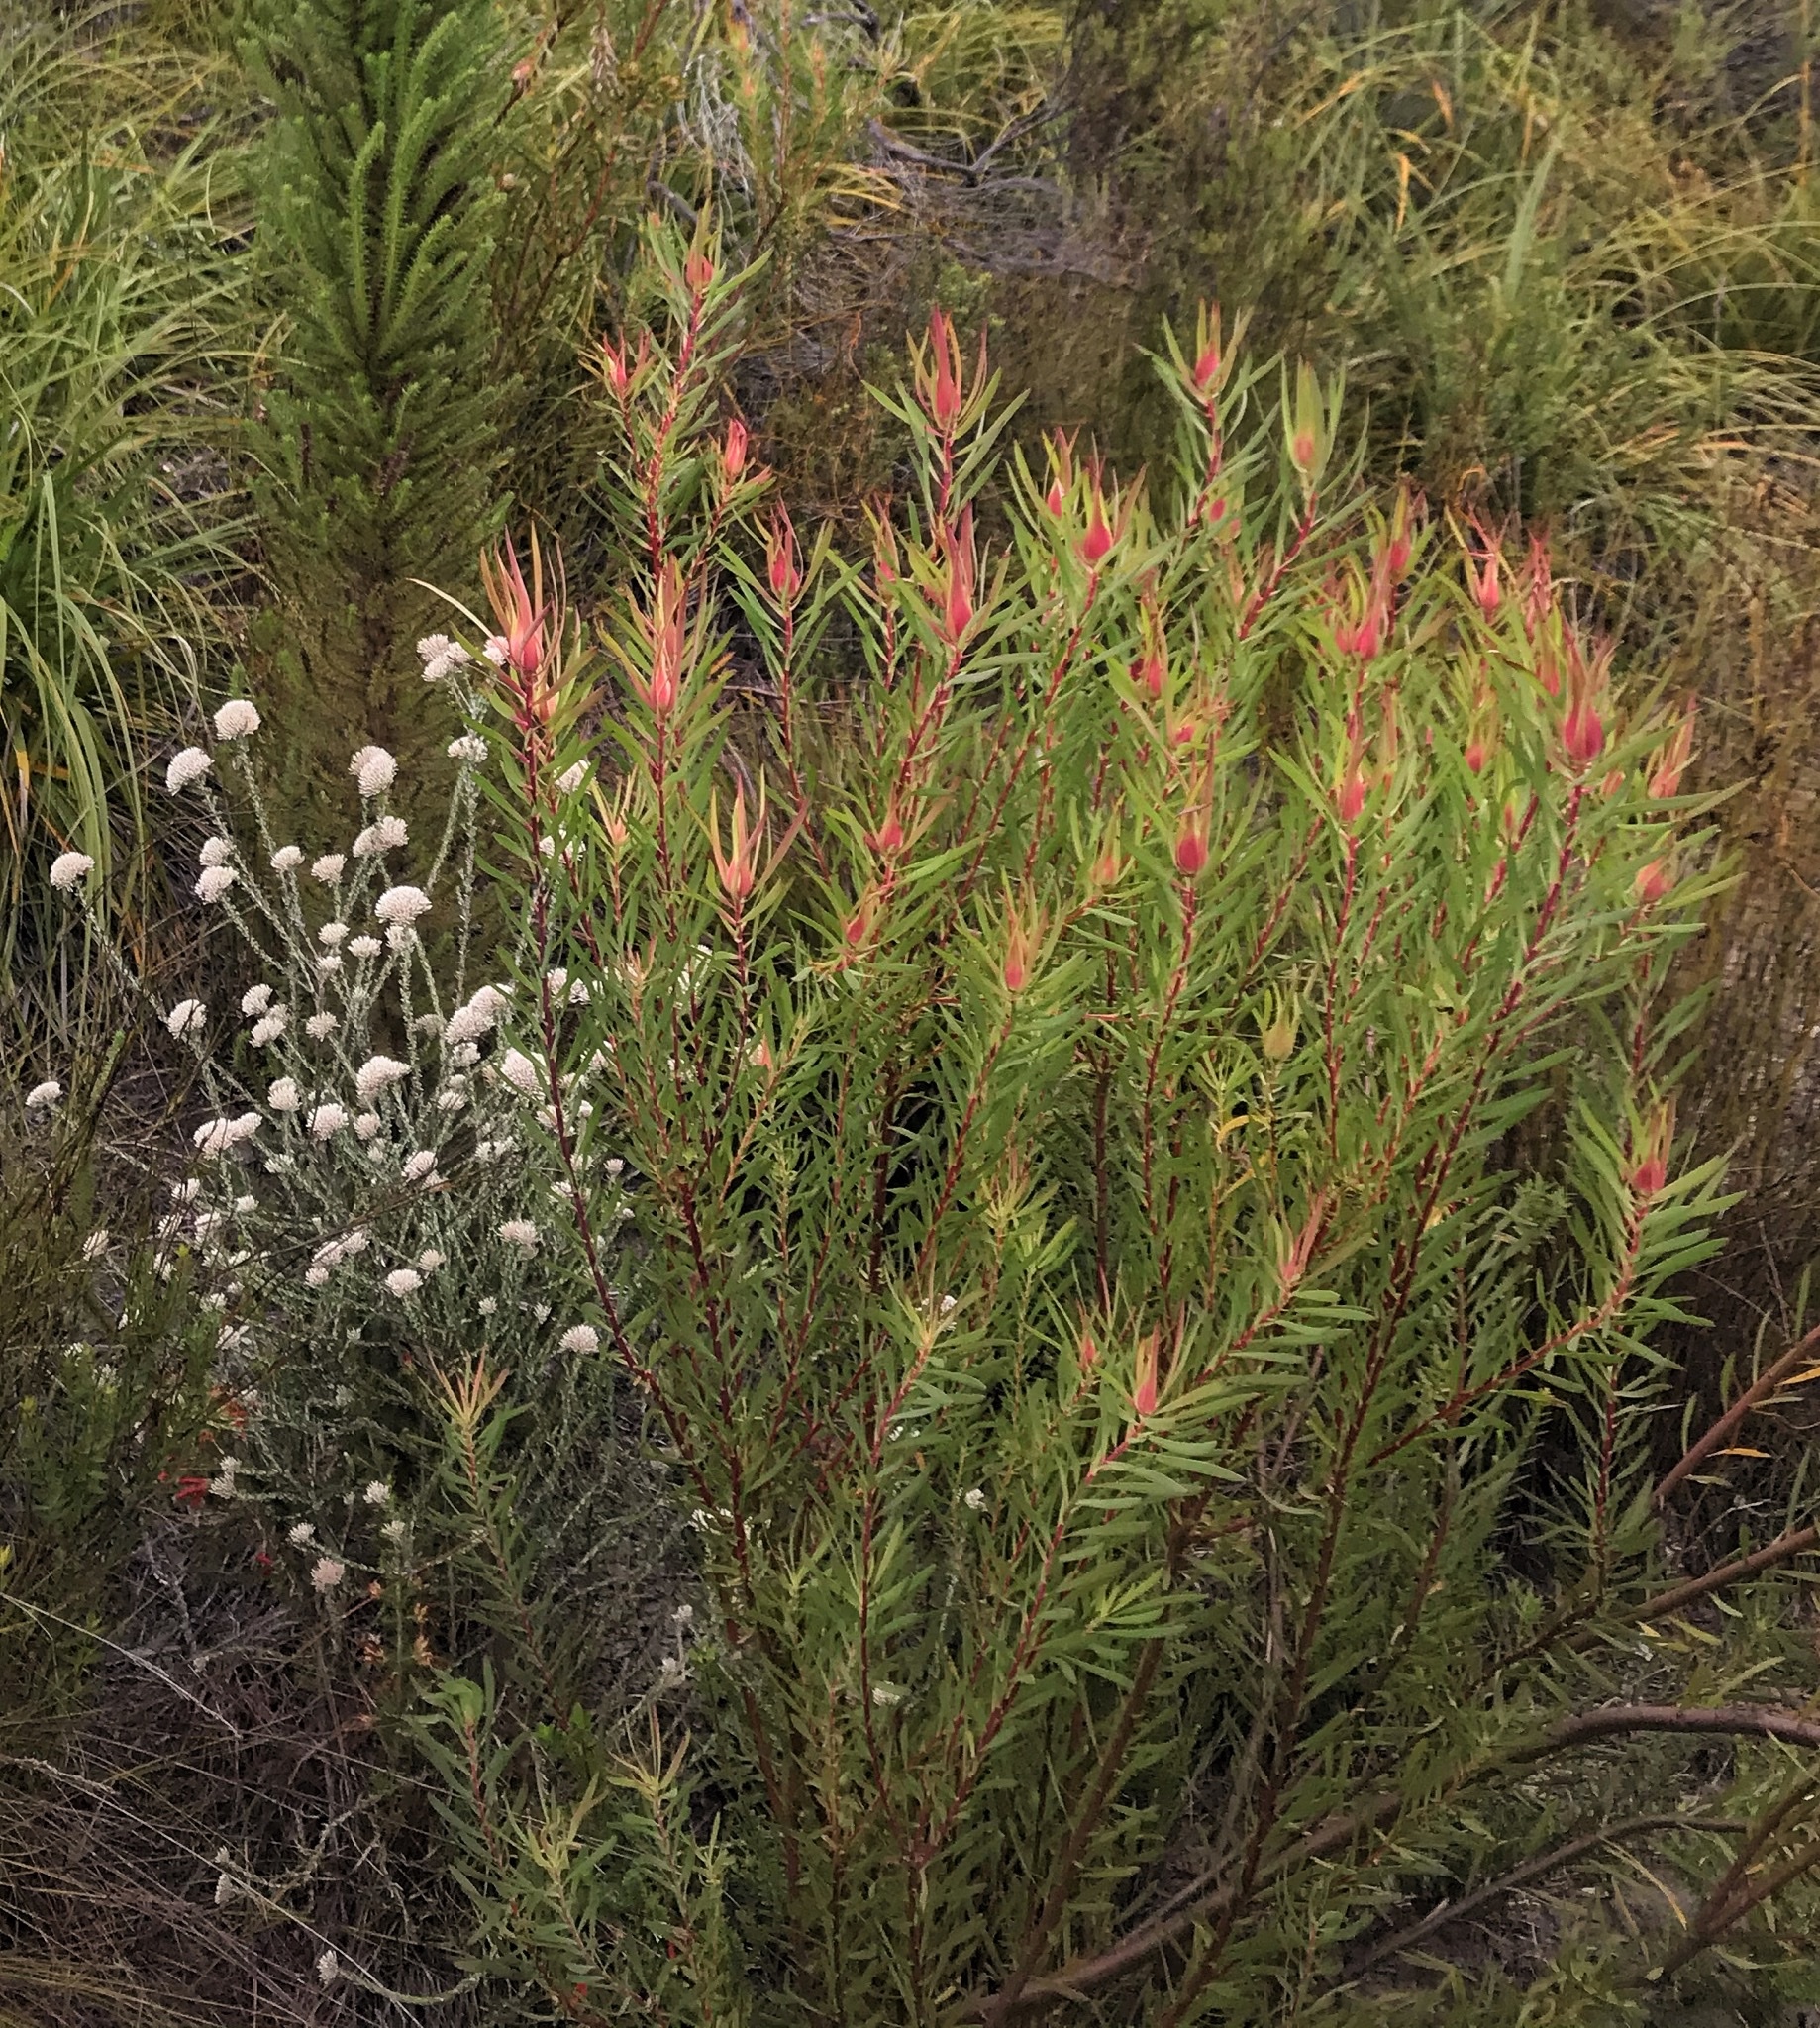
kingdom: Plantae
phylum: Tracheophyta
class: Magnoliopsida
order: Proteales
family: Proteaceae
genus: Leucadendron
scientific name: Leucadendron salignum
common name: Common sunshine conebush
